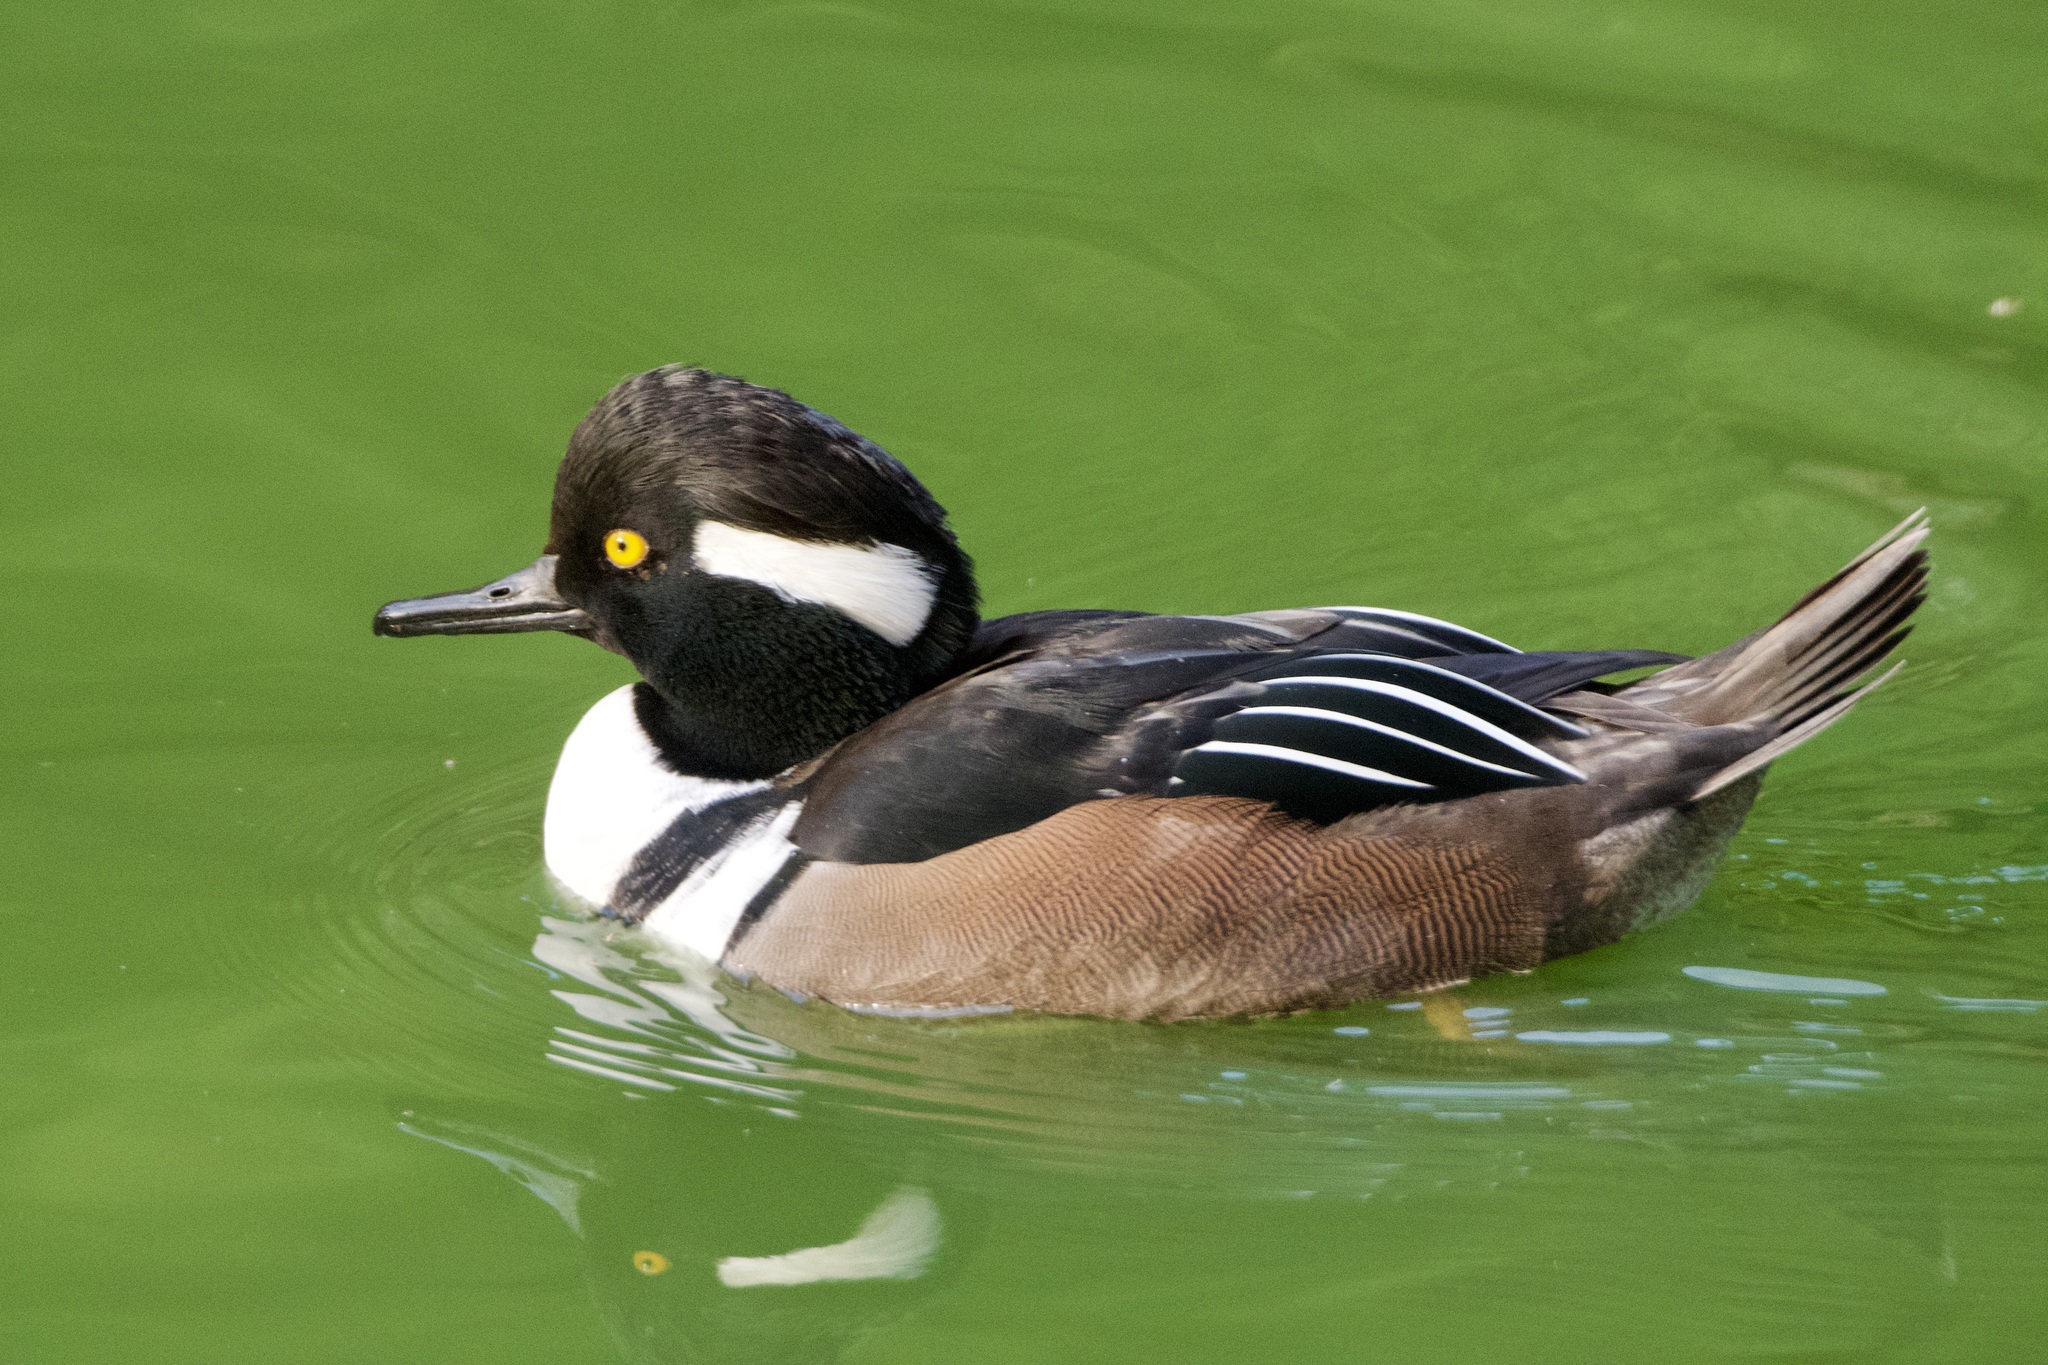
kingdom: Animalia
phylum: Chordata
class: Aves
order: Anseriformes
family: Anatidae
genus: Lophodytes
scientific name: Lophodytes cucullatus
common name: Hooded merganser
